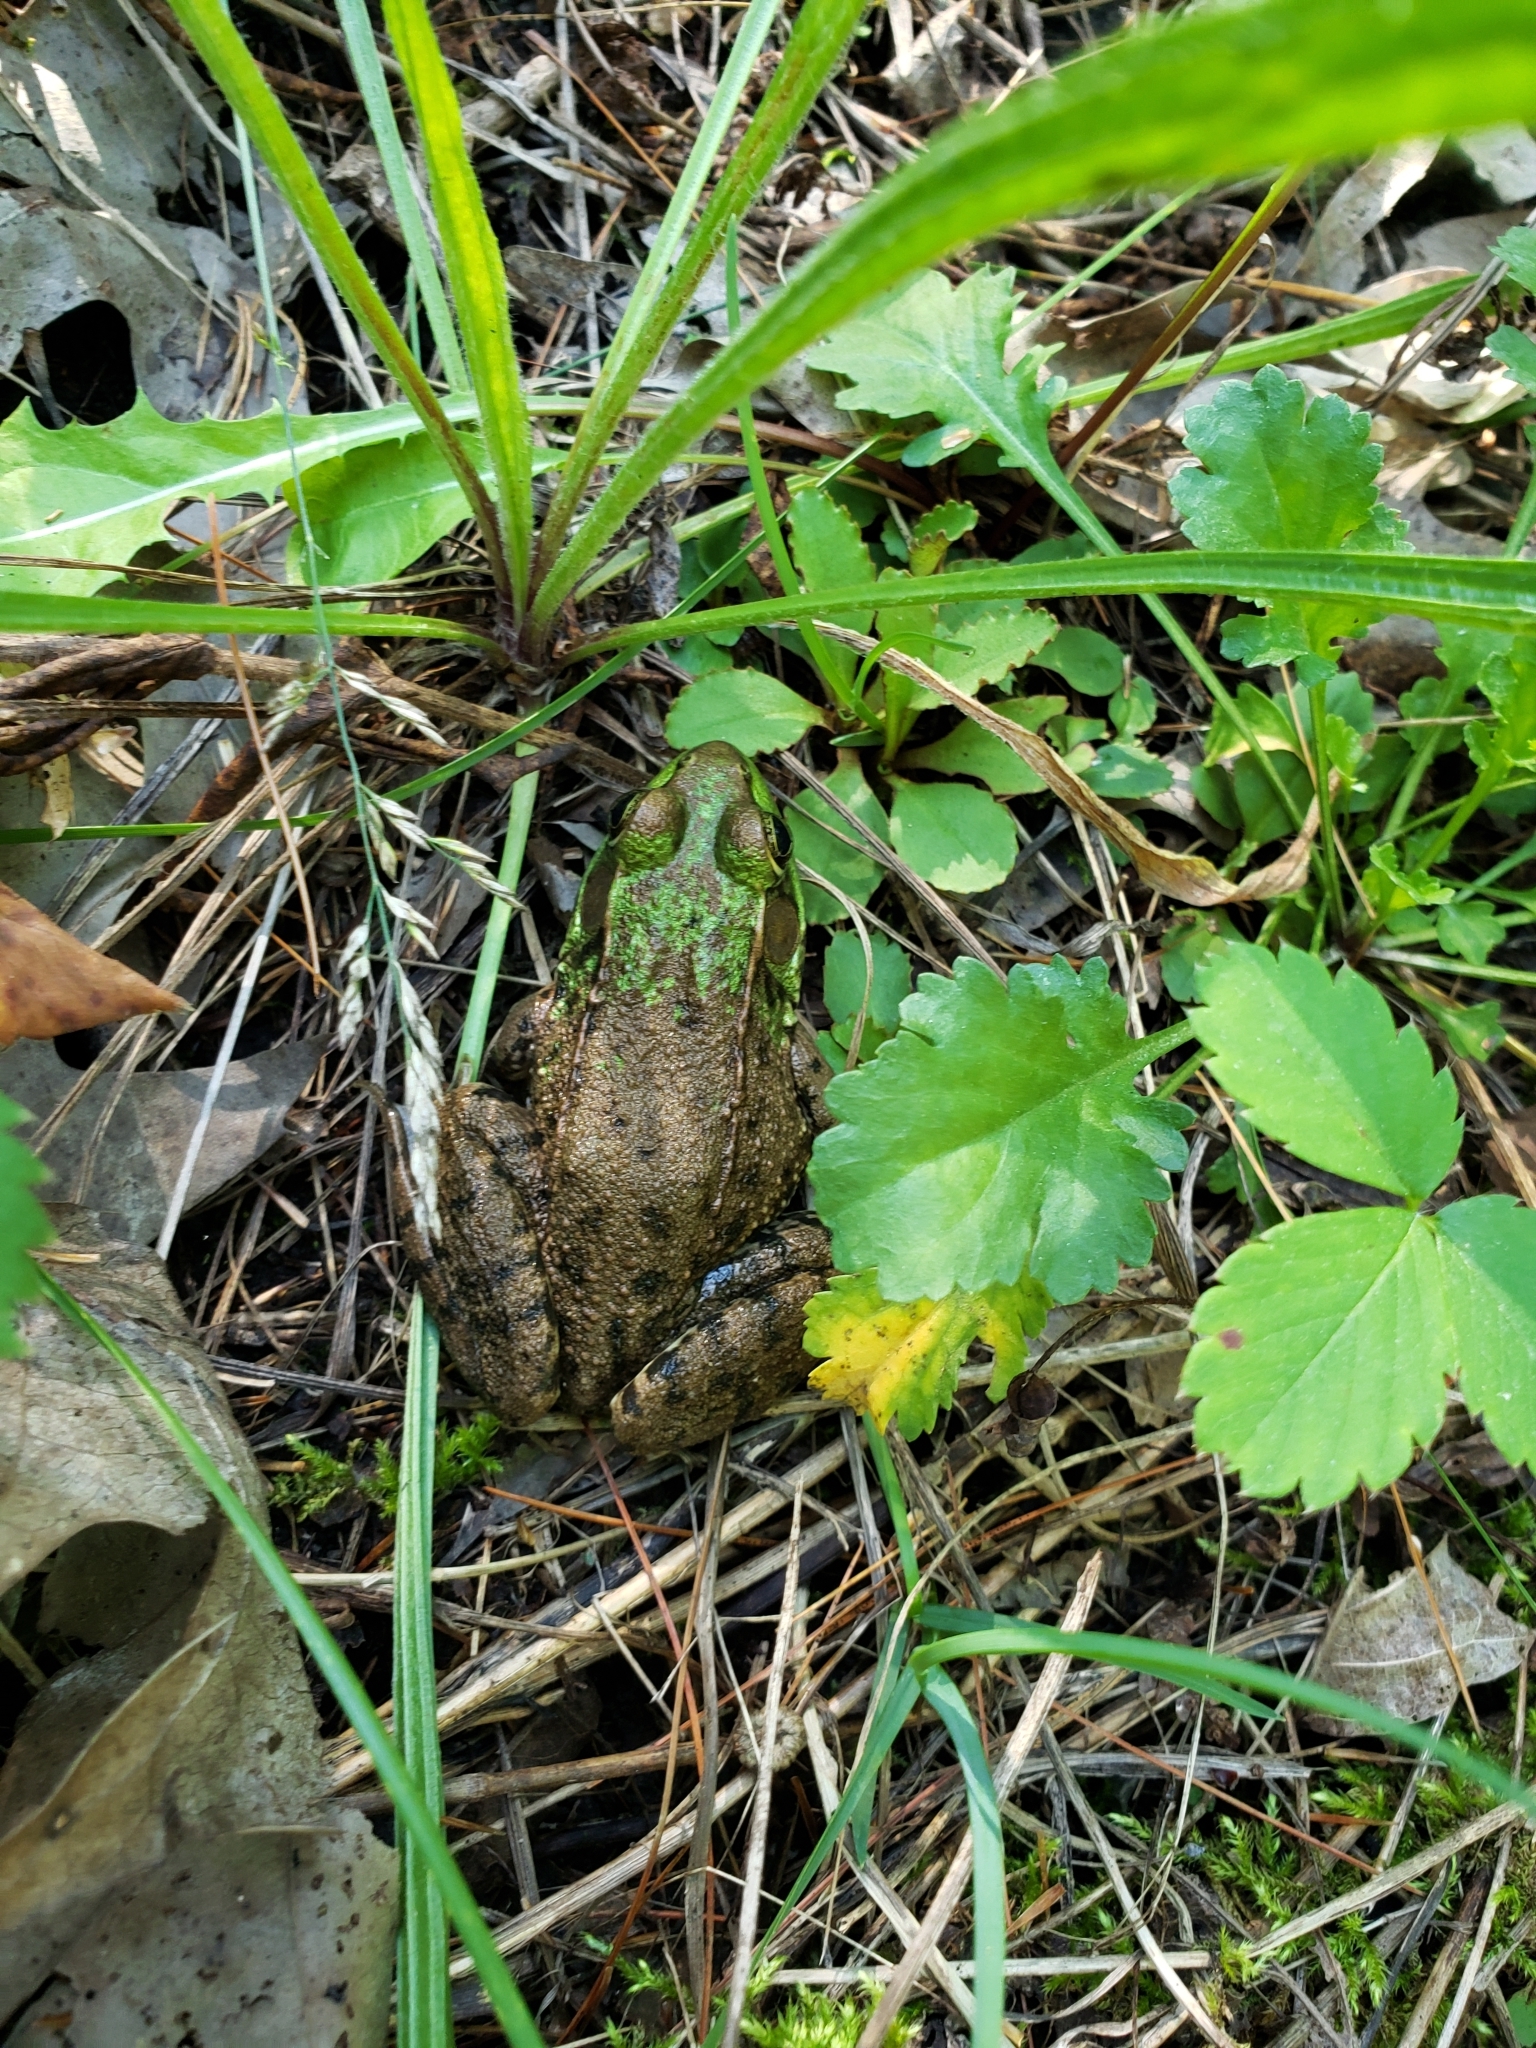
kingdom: Animalia
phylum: Chordata
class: Amphibia
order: Anura
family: Ranidae
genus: Lithobates
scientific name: Lithobates clamitans
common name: Green frog
